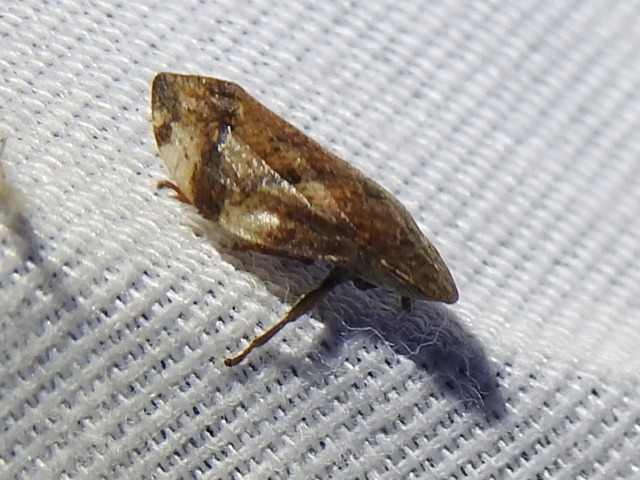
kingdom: Animalia
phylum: Arthropoda
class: Insecta
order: Hemiptera
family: Aphrophoridae
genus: Lepyronia
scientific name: Lepyronia quadrangularis
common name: Diamond-backed spittlebug
